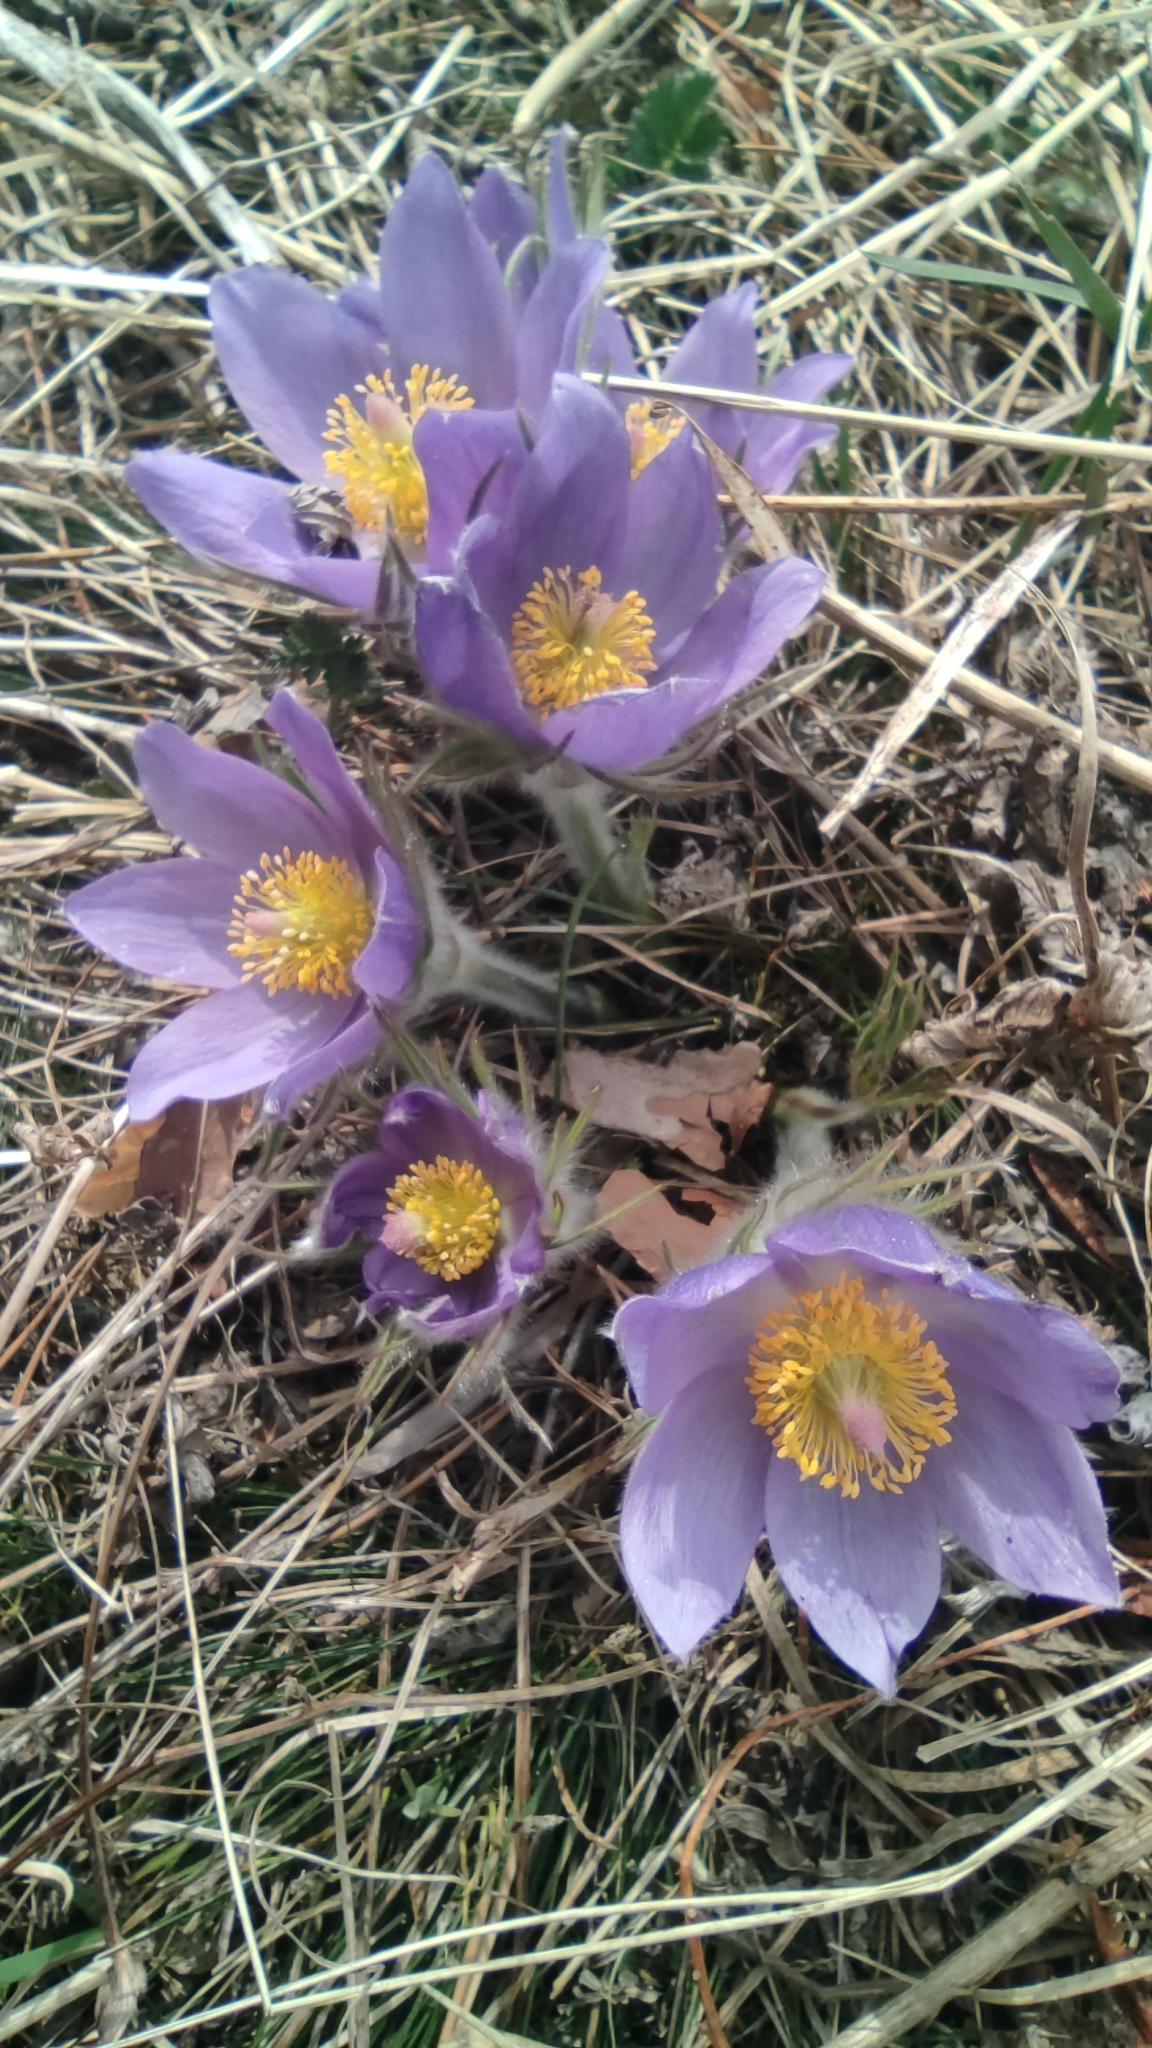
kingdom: Plantae
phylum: Tracheophyta
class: Magnoliopsida
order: Ranunculales
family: Ranunculaceae
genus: Pulsatilla
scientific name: Pulsatilla patens
